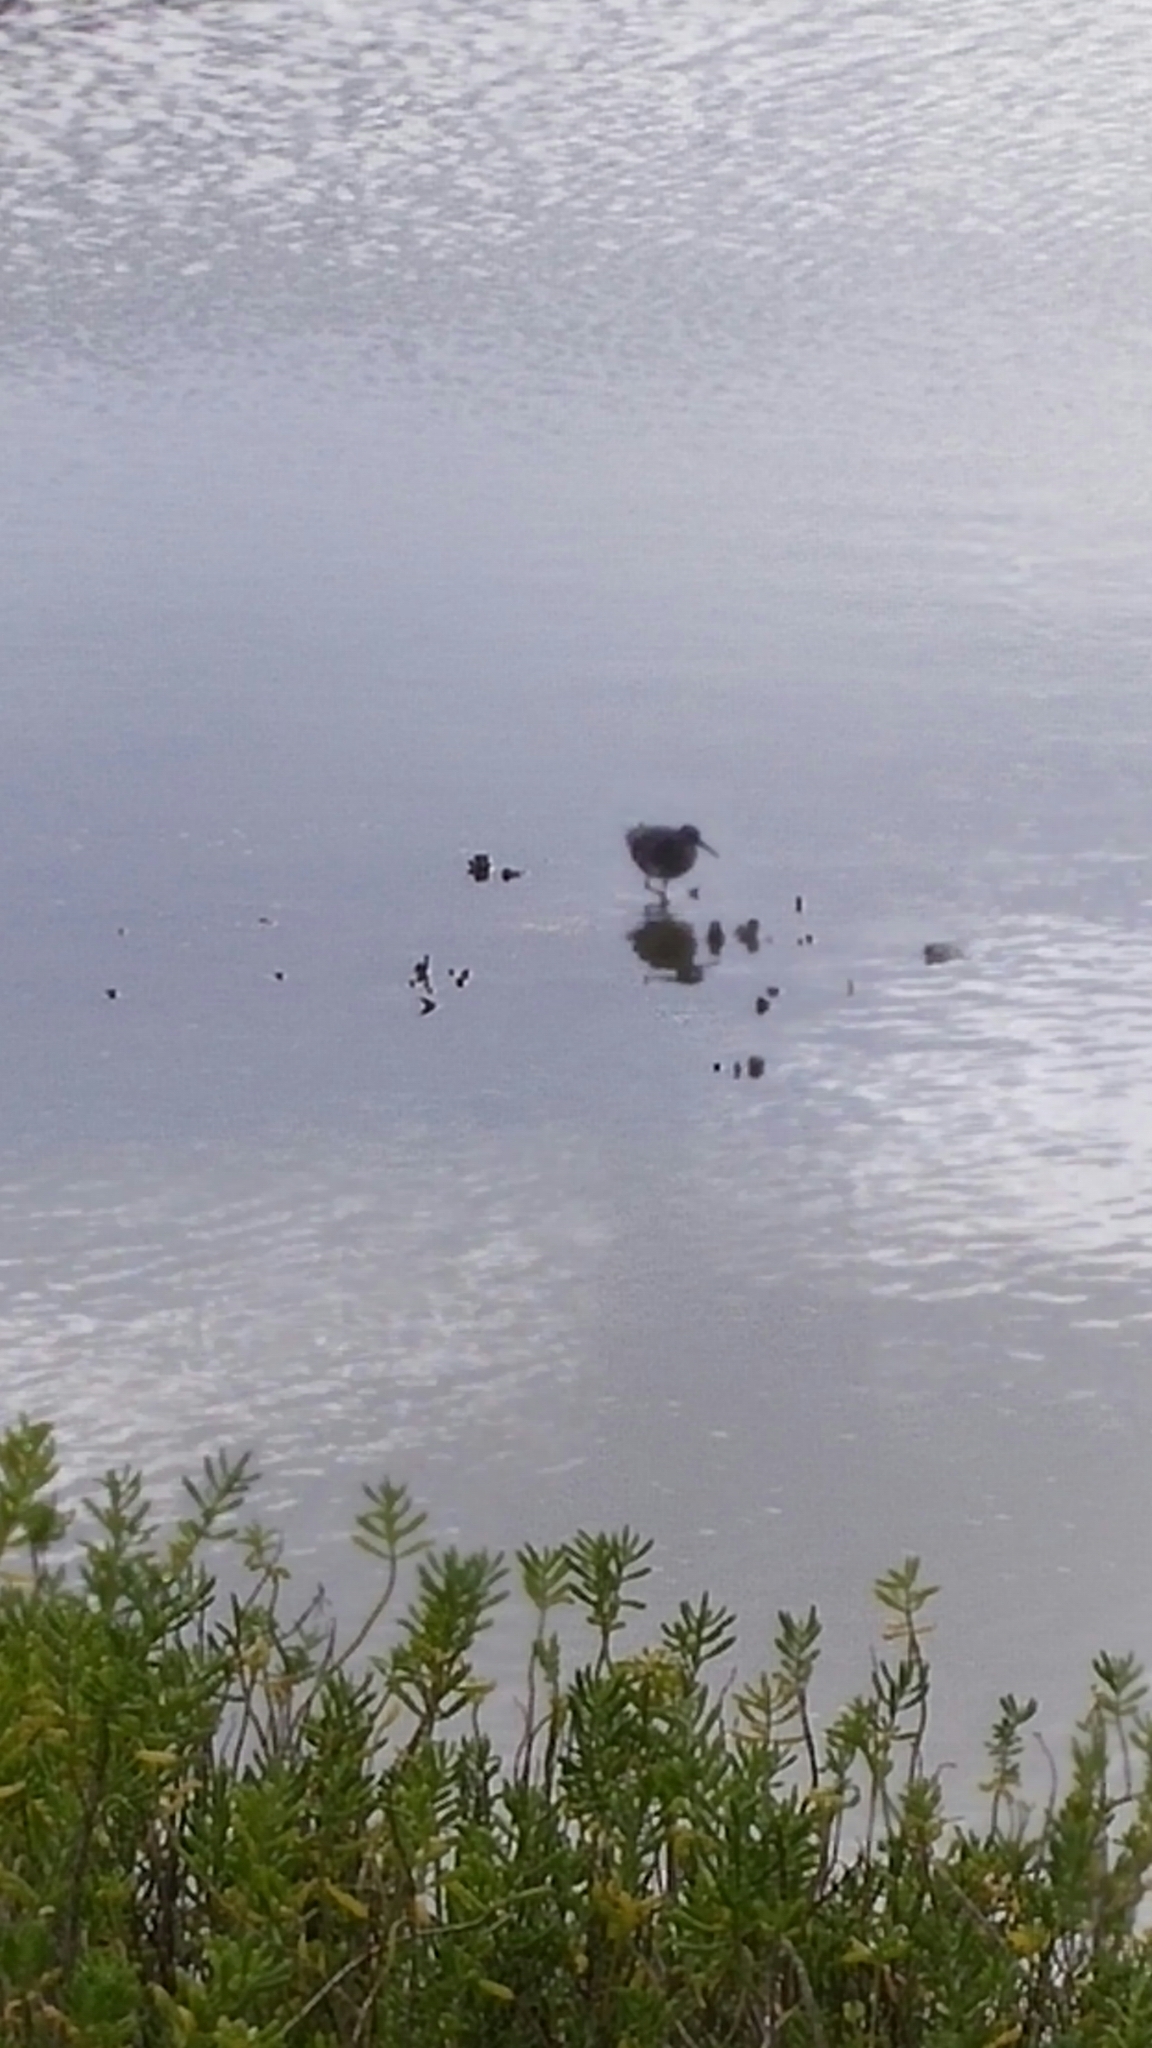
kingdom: Animalia
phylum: Chordata
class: Aves
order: Charadriiformes
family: Scolopacidae
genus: Tringa
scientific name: Tringa incana
